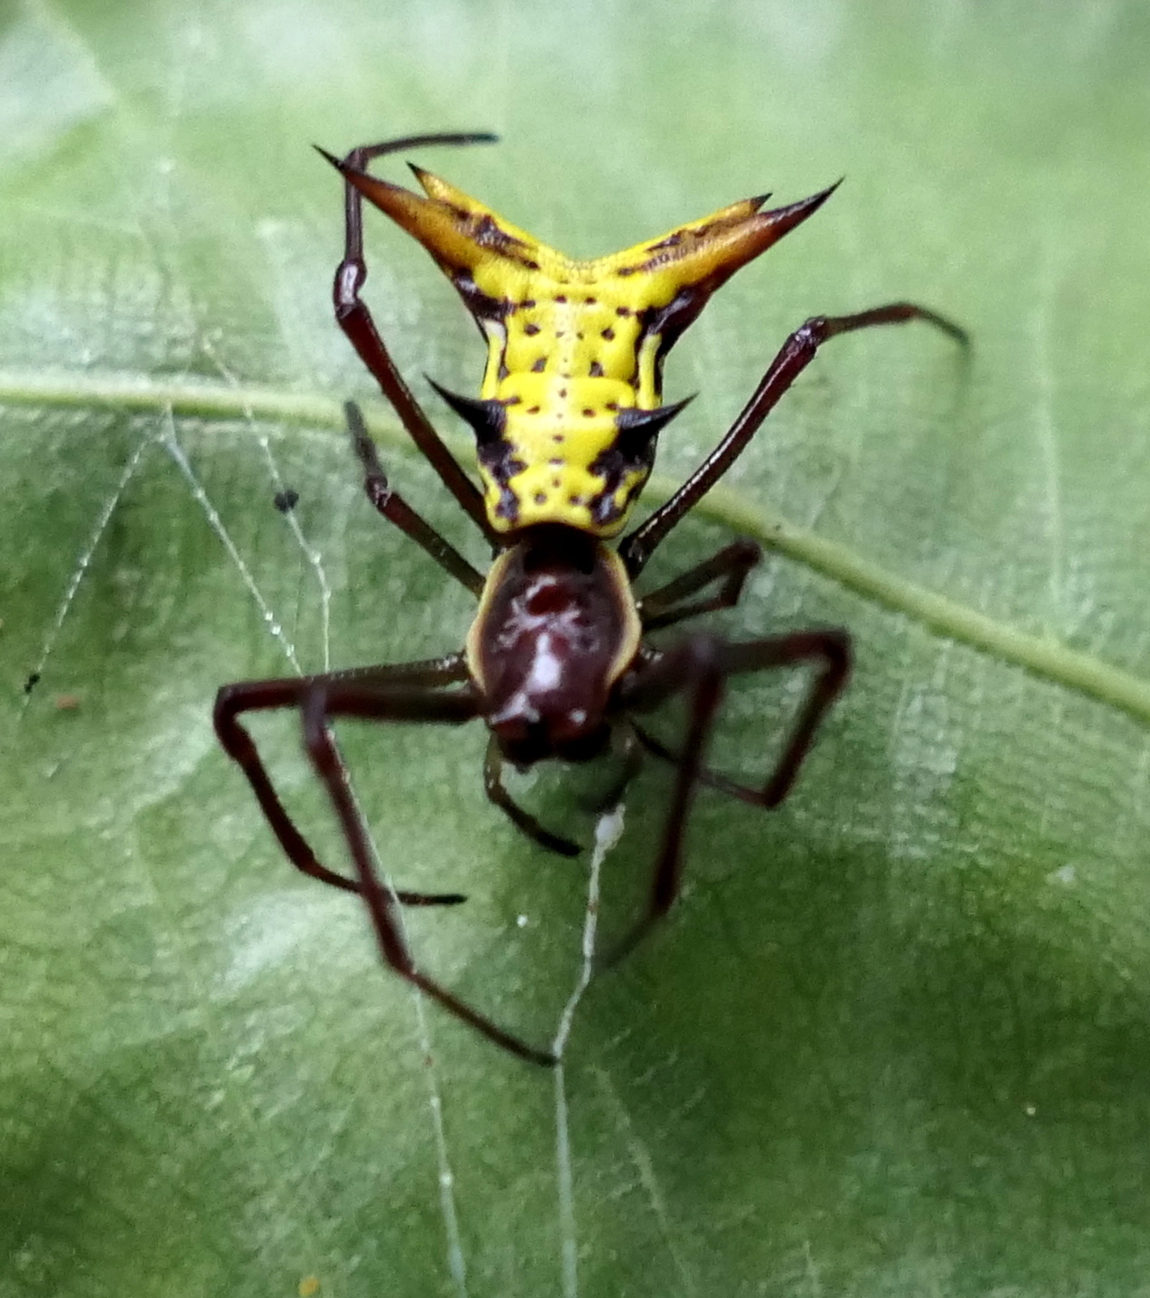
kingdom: Animalia
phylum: Arthropoda
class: Arachnida
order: Araneae
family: Araneidae
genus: Micrathena
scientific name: Micrathena fissispina
